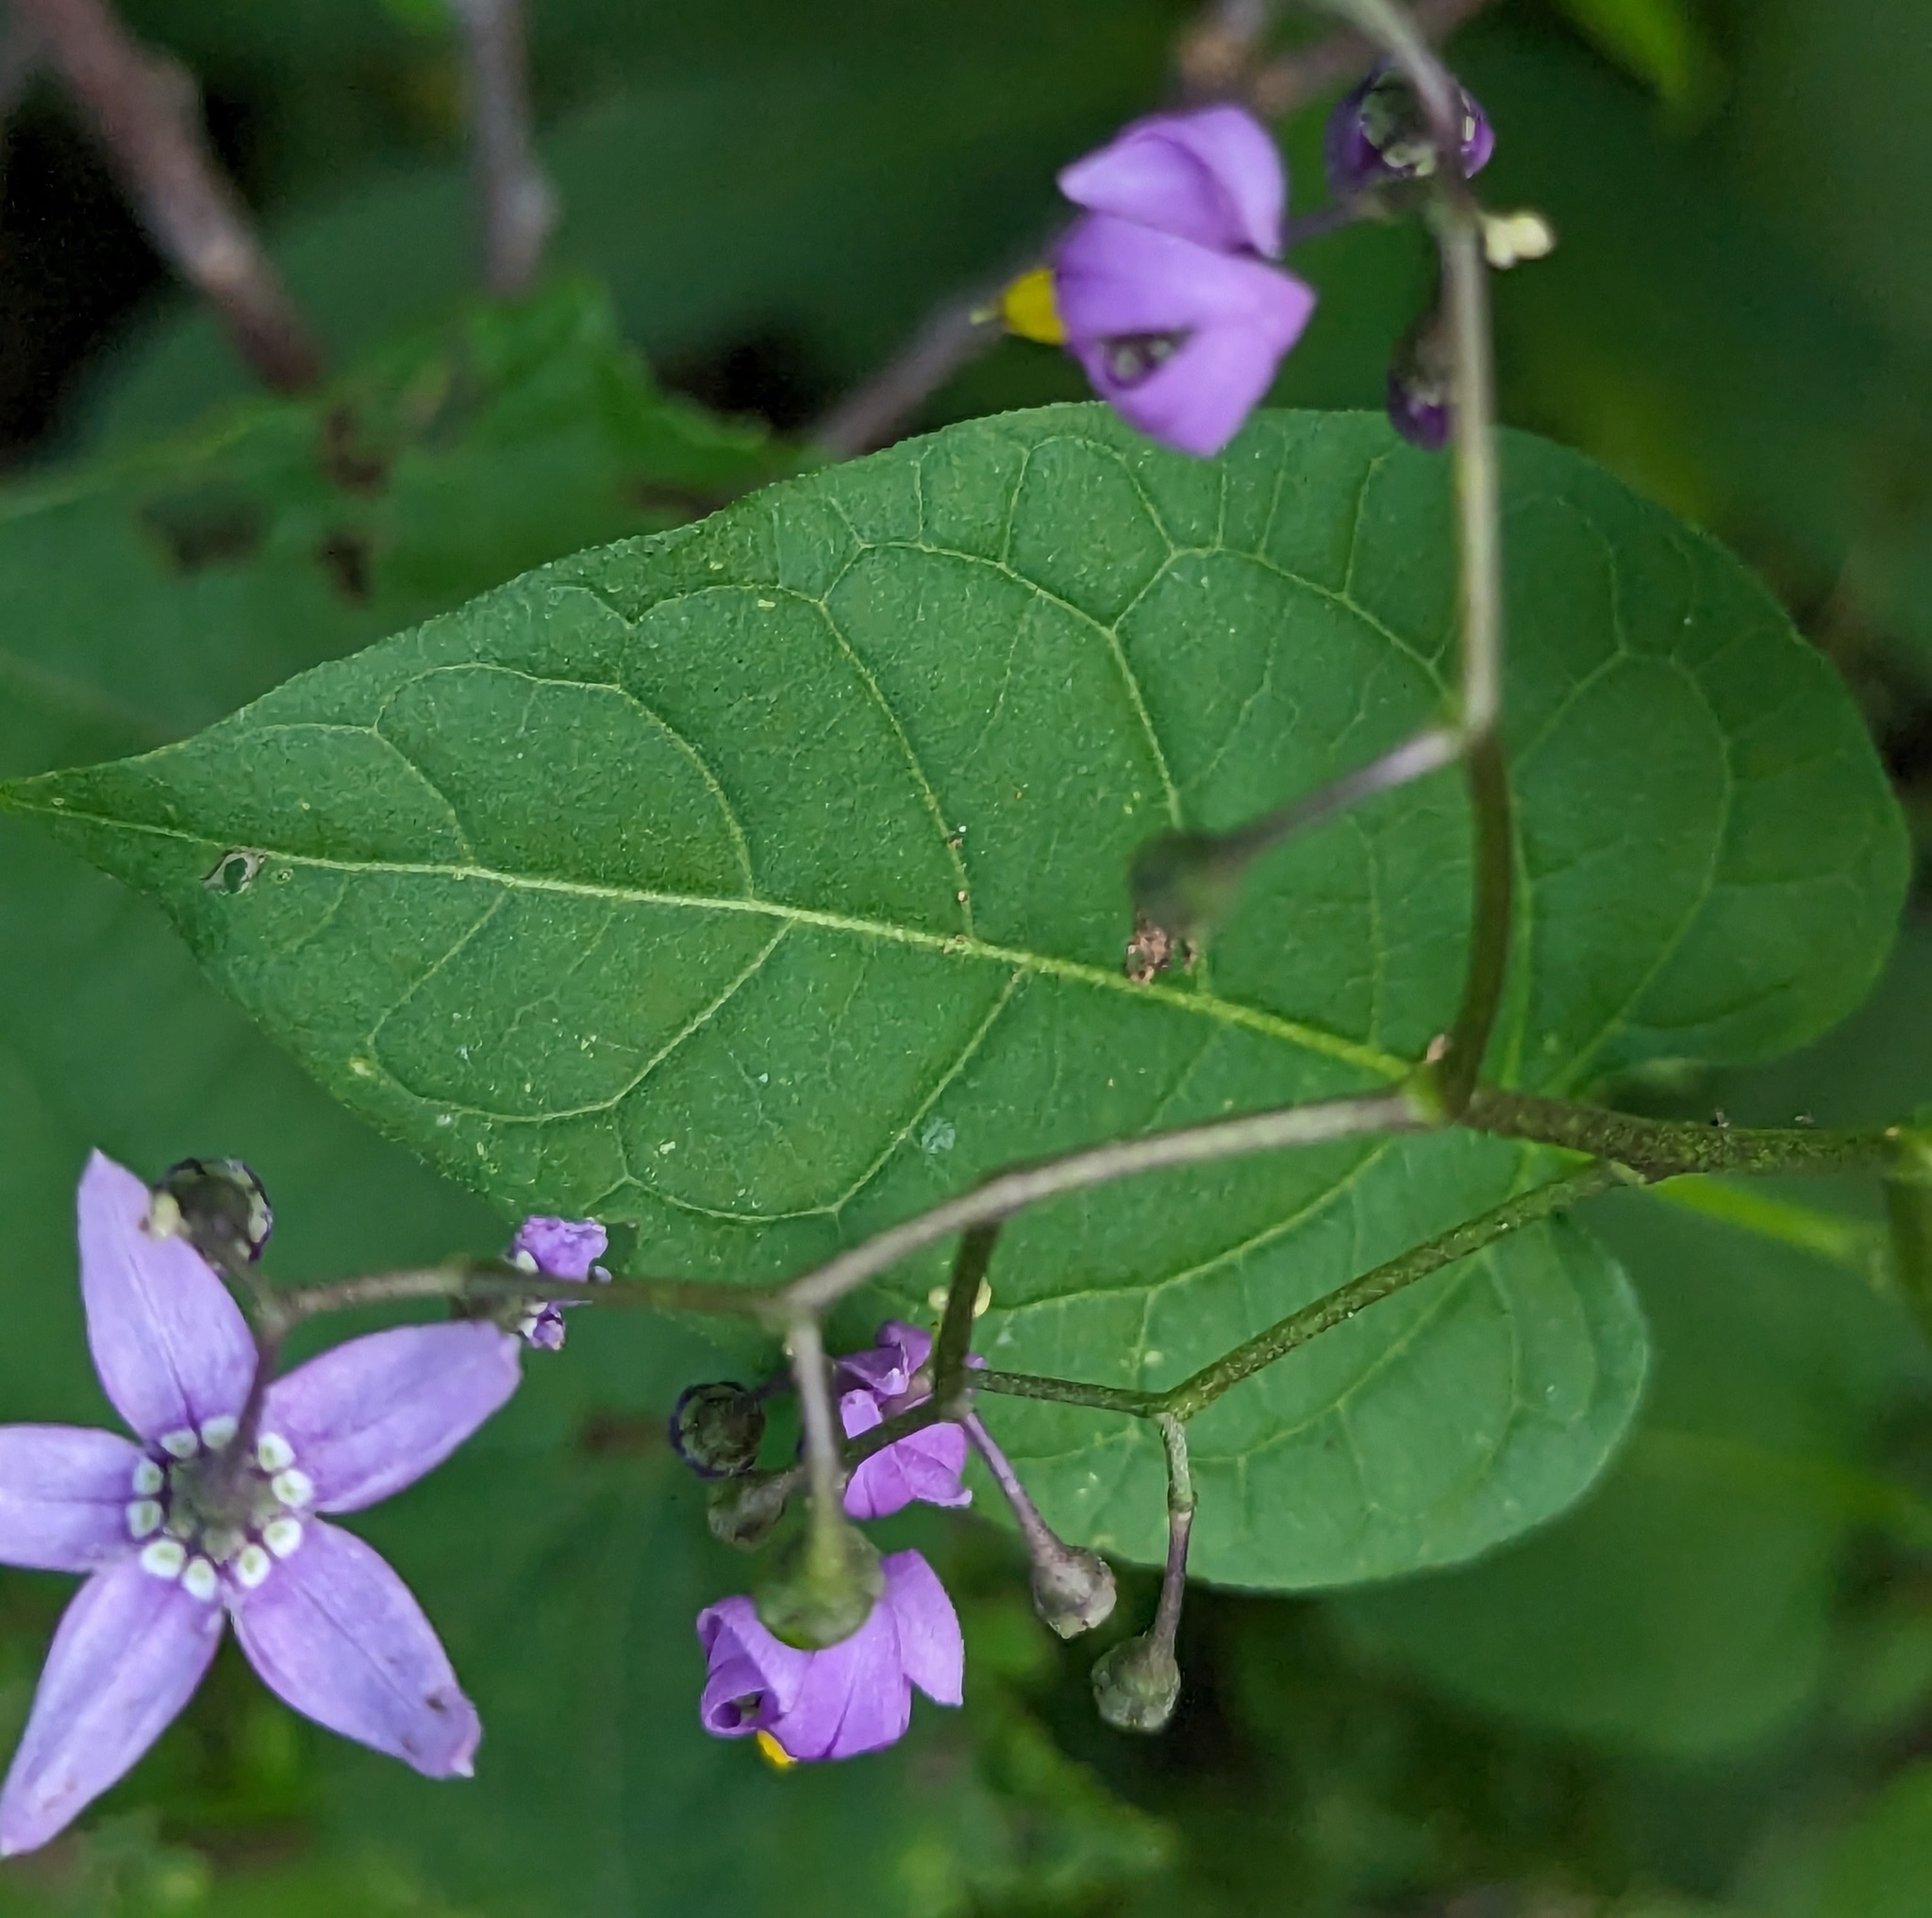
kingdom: Plantae
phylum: Tracheophyta
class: Magnoliopsida
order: Solanales
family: Solanaceae
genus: Solanum
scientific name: Solanum dulcamara
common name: Climbing nightshade
